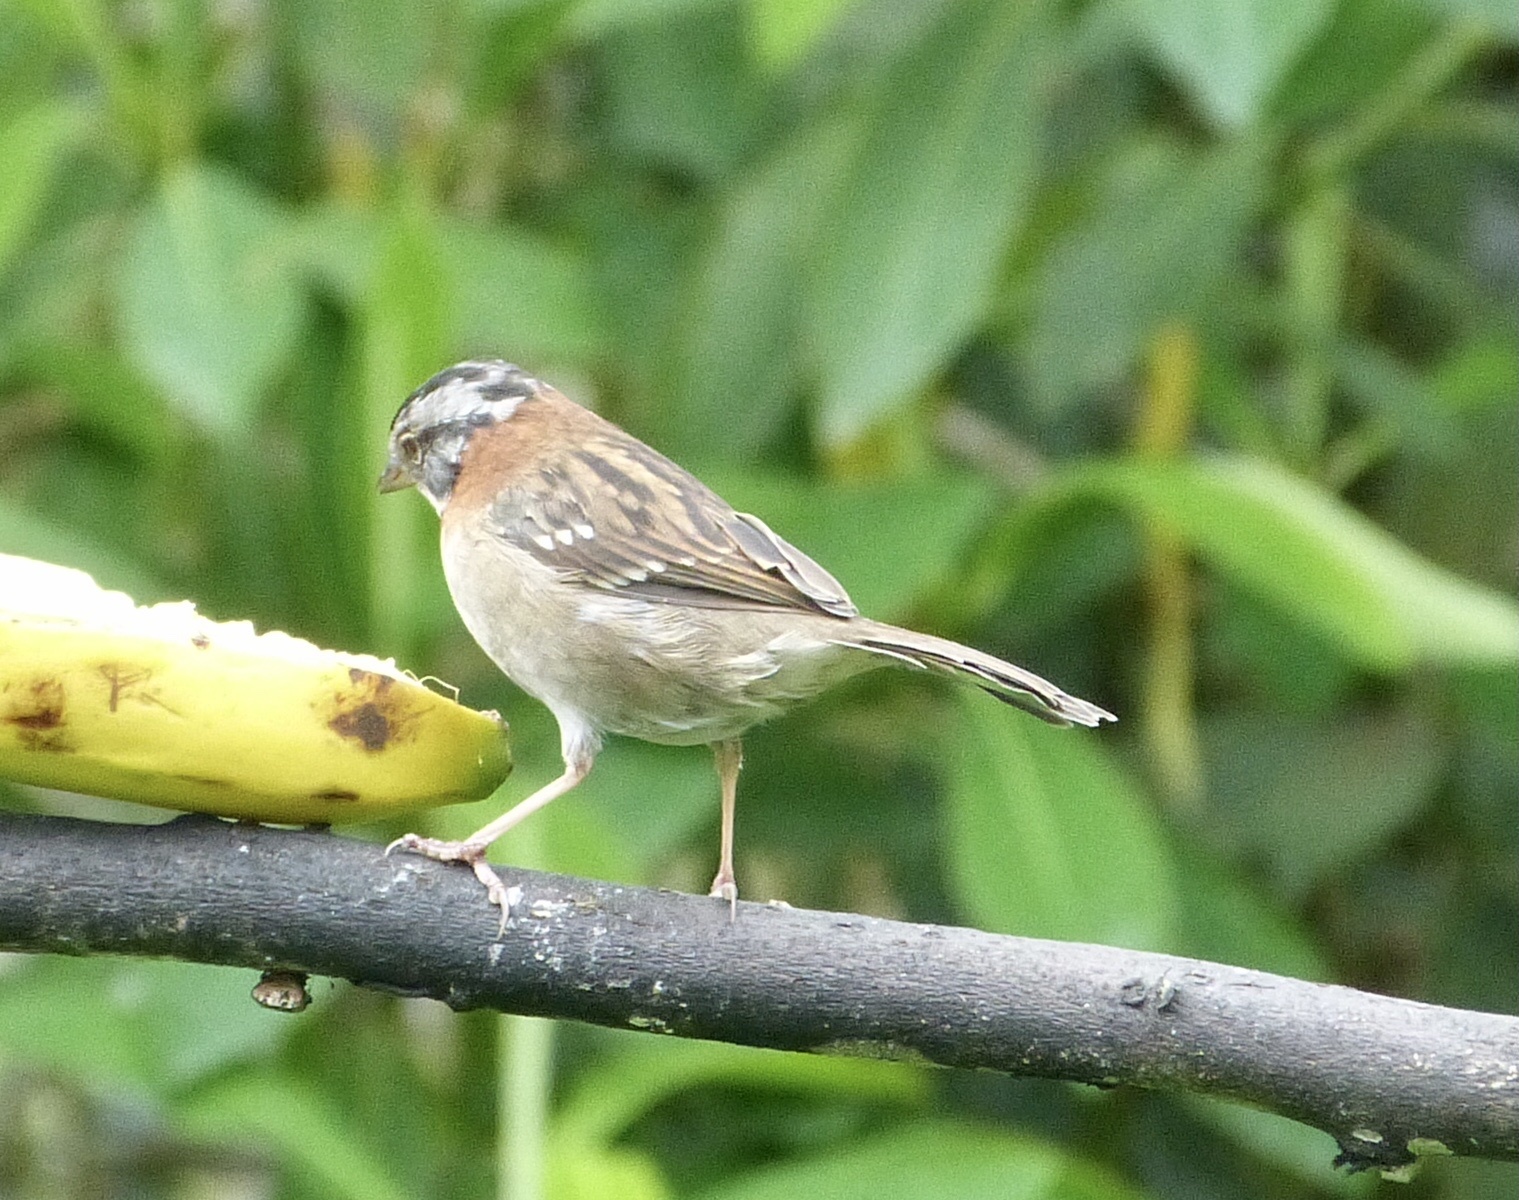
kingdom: Animalia
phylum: Chordata
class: Aves
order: Passeriformes
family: Passerellidae
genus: Zonotrichia
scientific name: Zonotrichia capensis
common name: Rufous-collared sparrow
